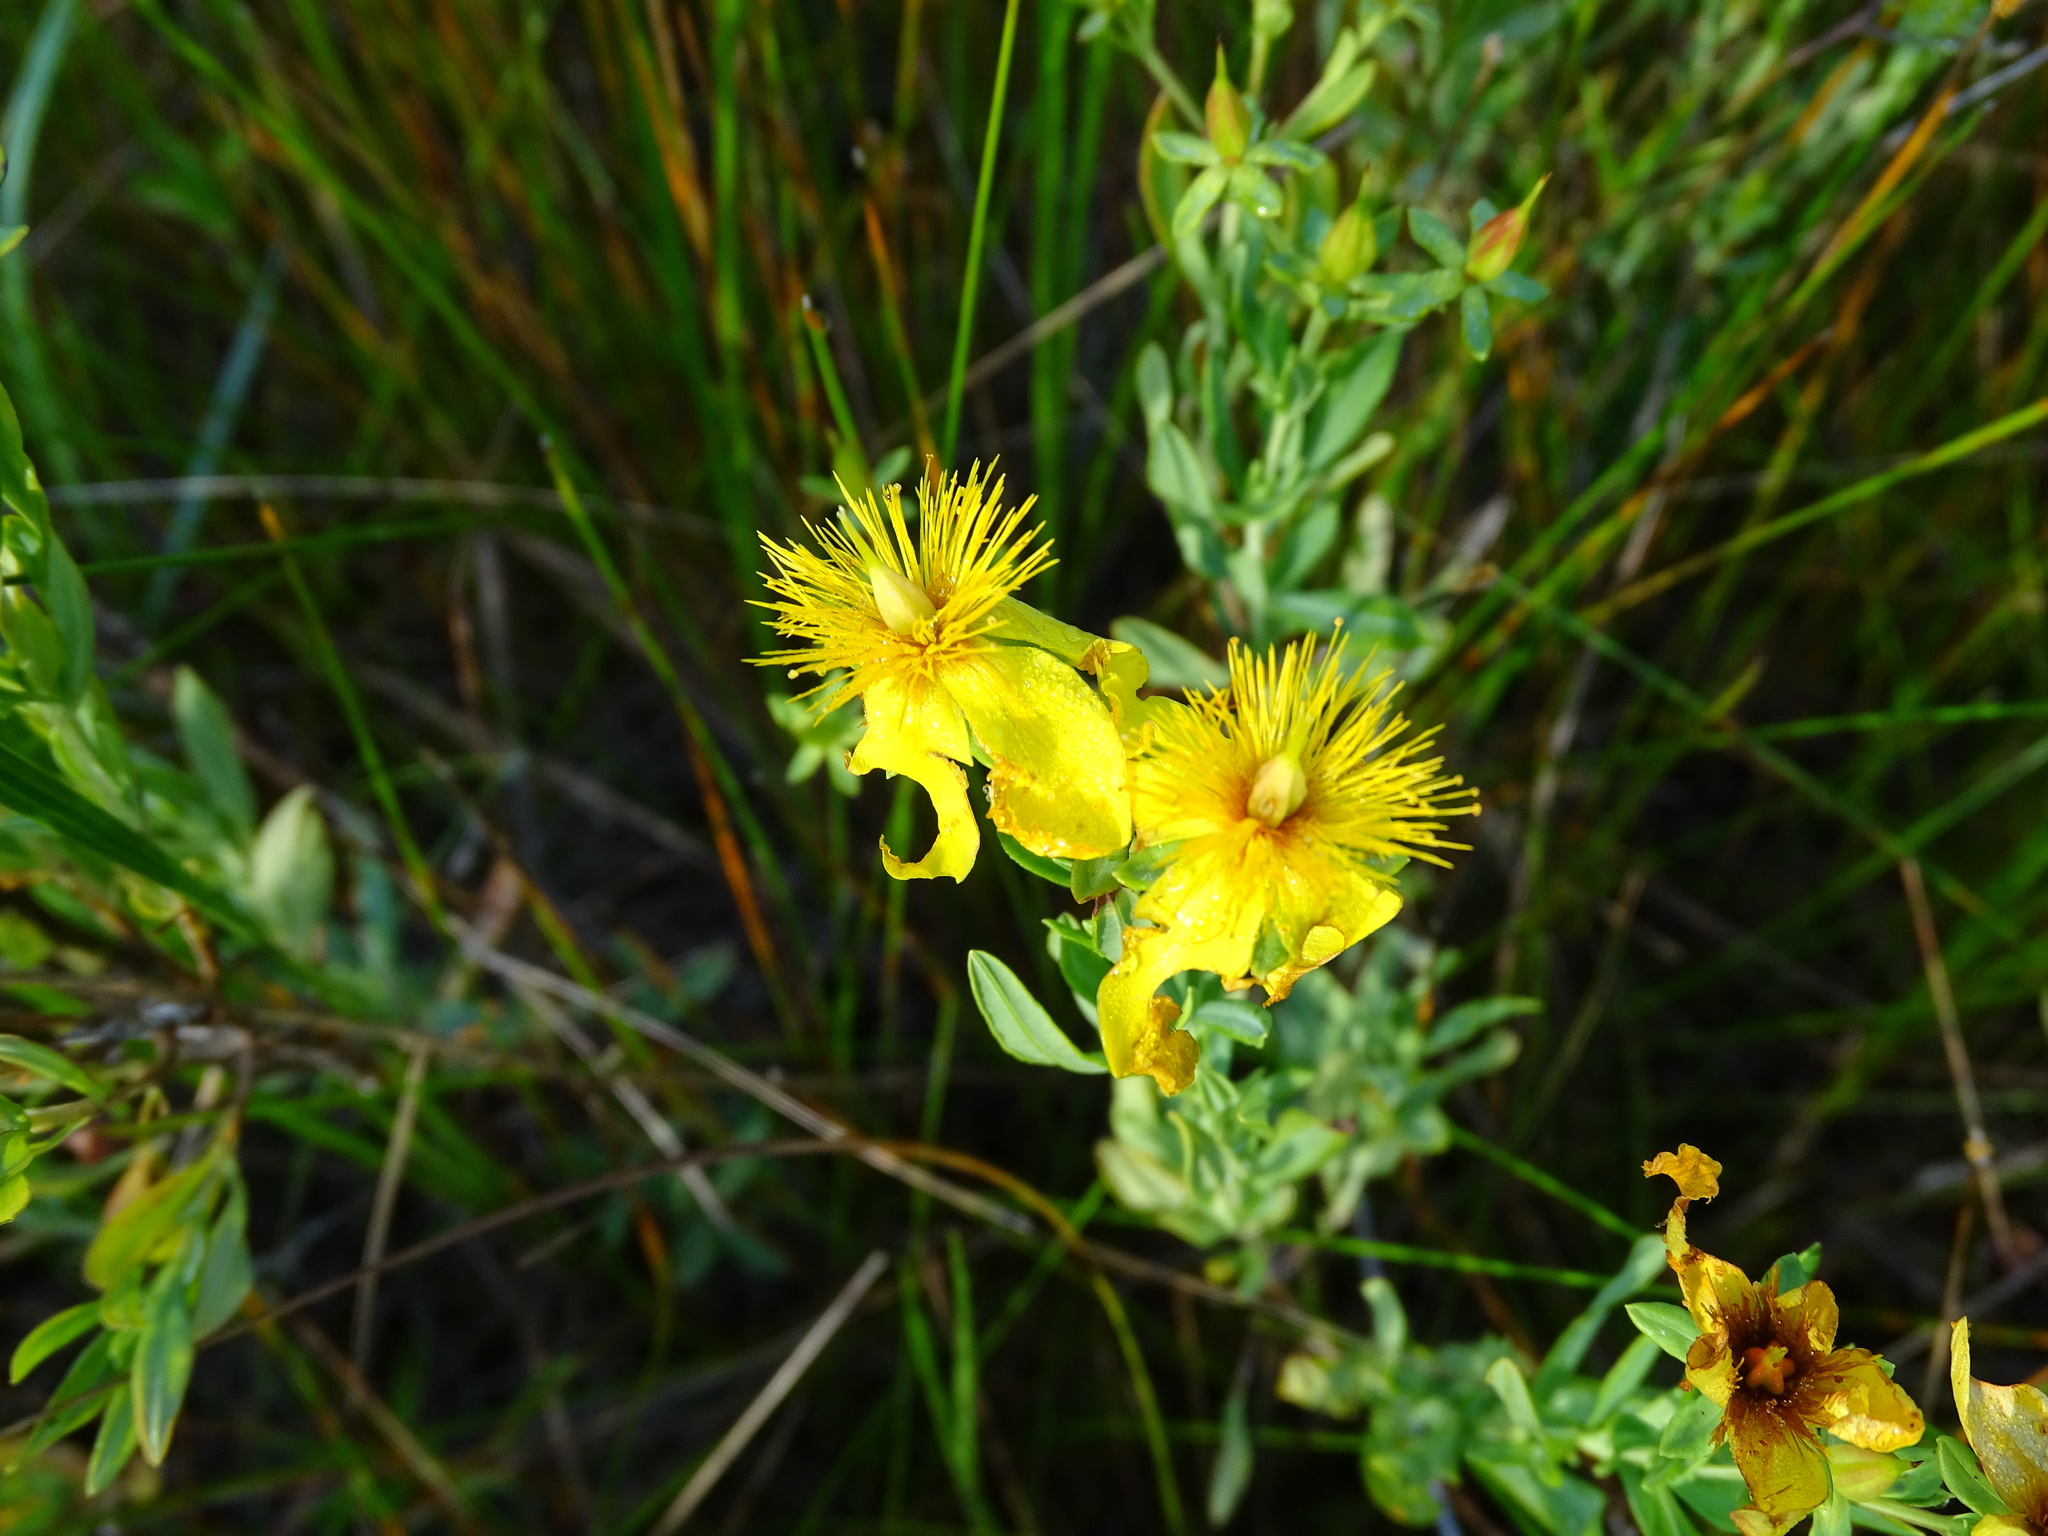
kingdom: Plantae
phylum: Tracheophyta
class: Magnoliopsida
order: Malpighiales
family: Hypericaceae
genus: Hypericum
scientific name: Hypericum kalmianum
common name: Kalm's st. john's-wort
